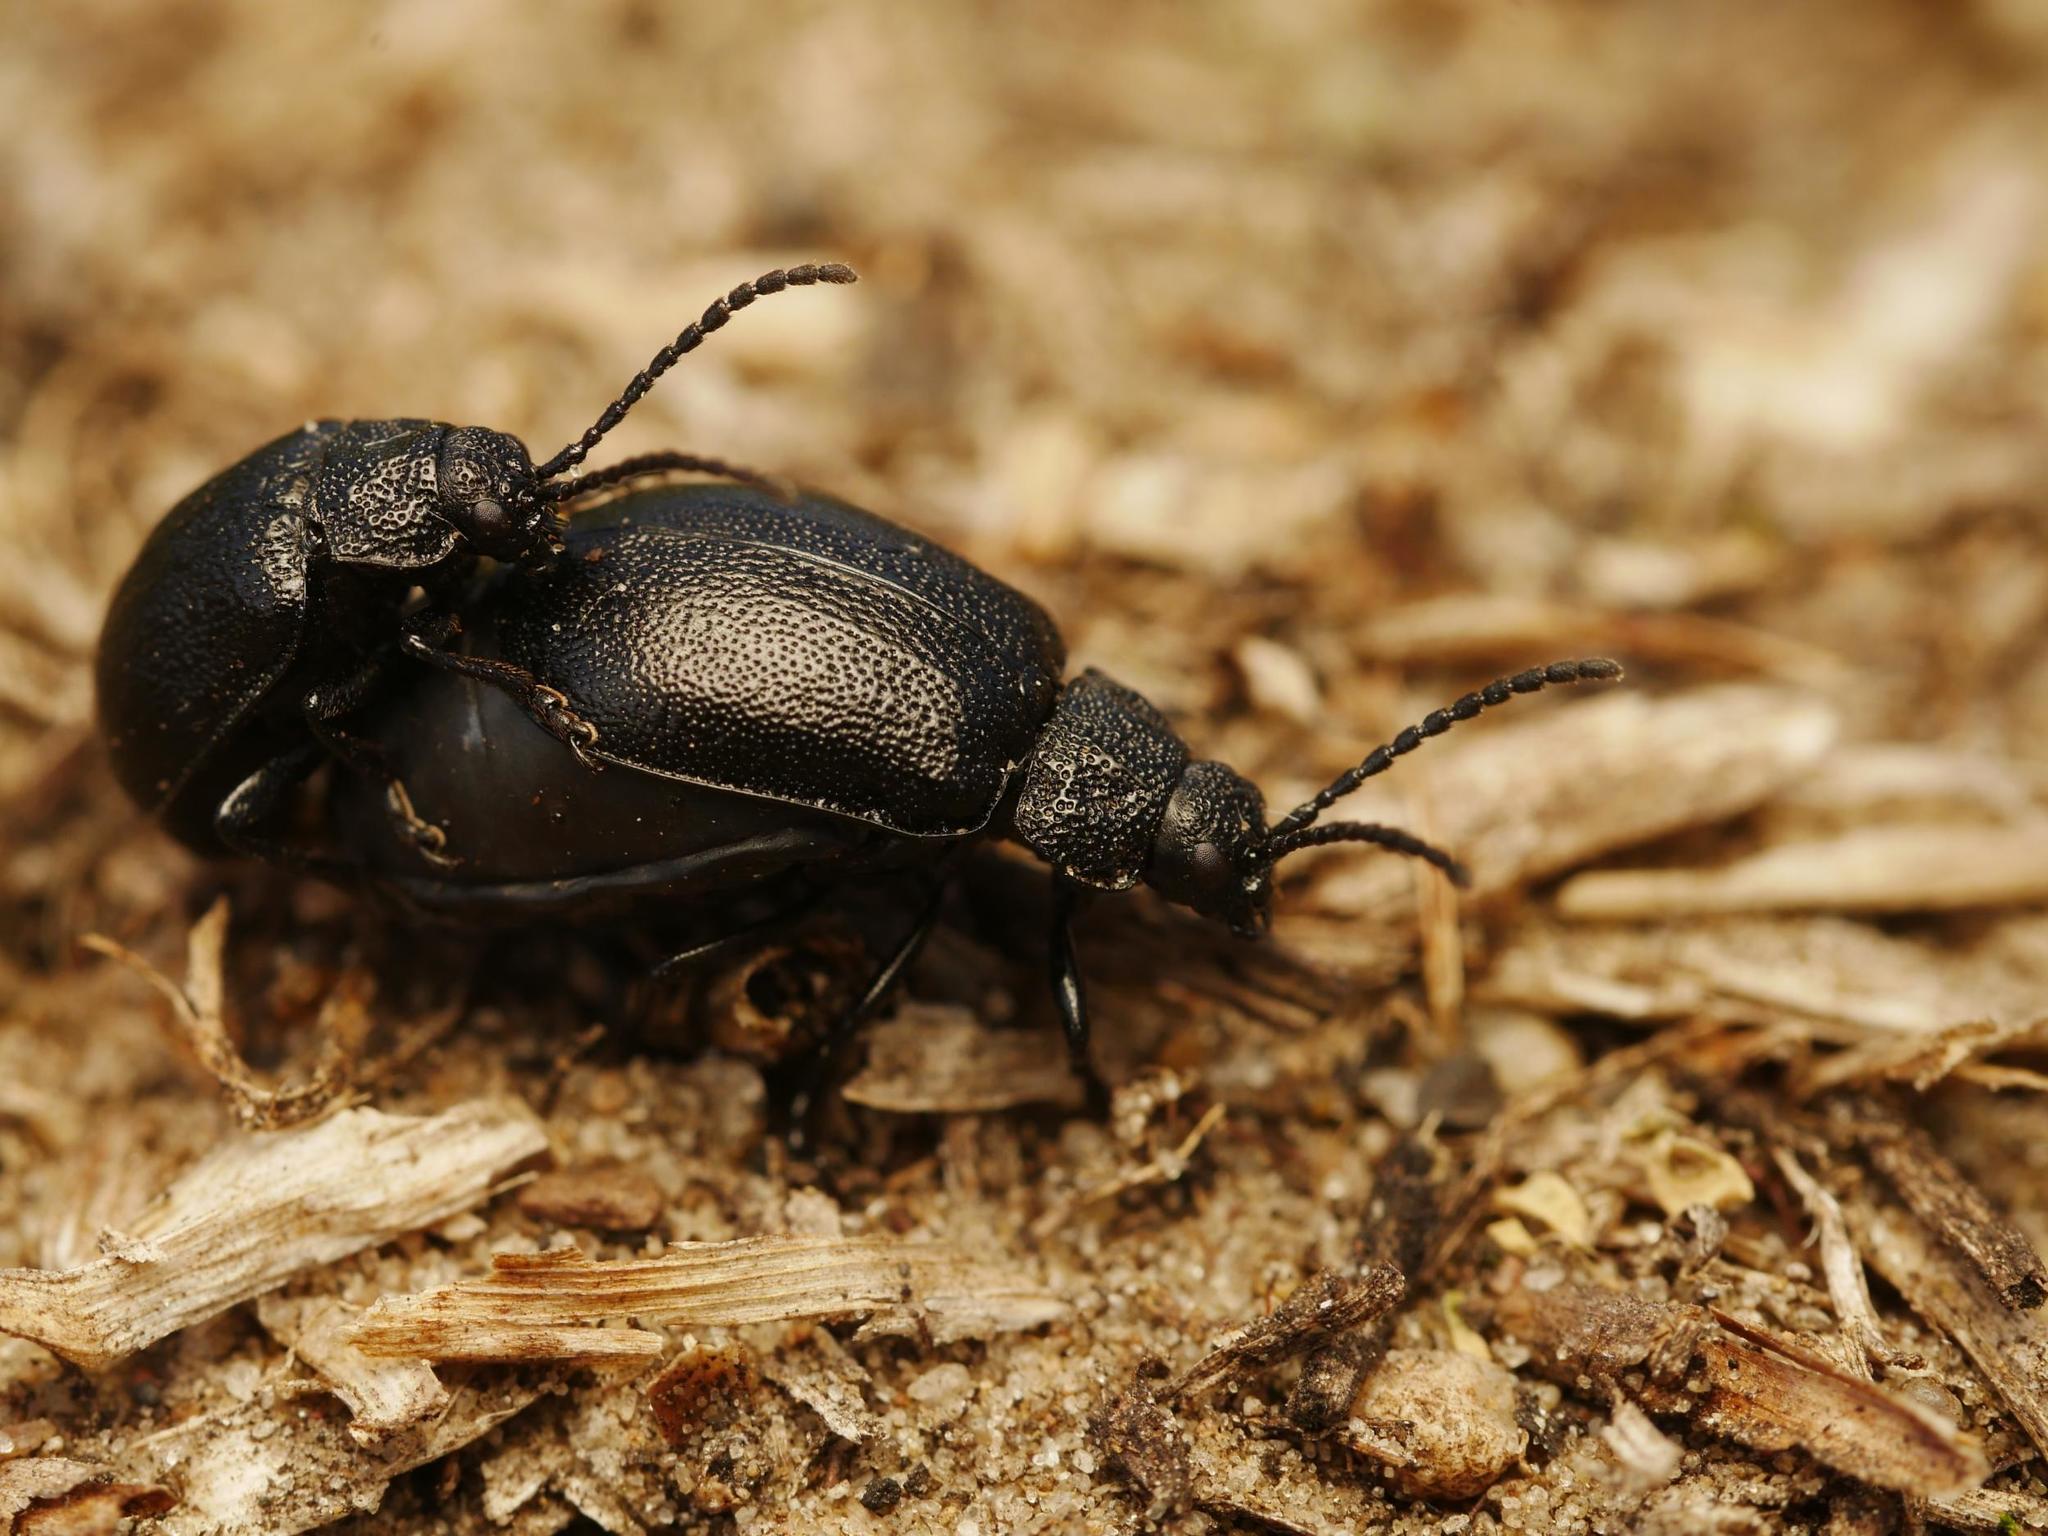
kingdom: Animalia
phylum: Arthropoda
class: Insecta
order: Coleoptera
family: Chrysomelidae
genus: Galeruca
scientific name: Galeruca tanaceti
